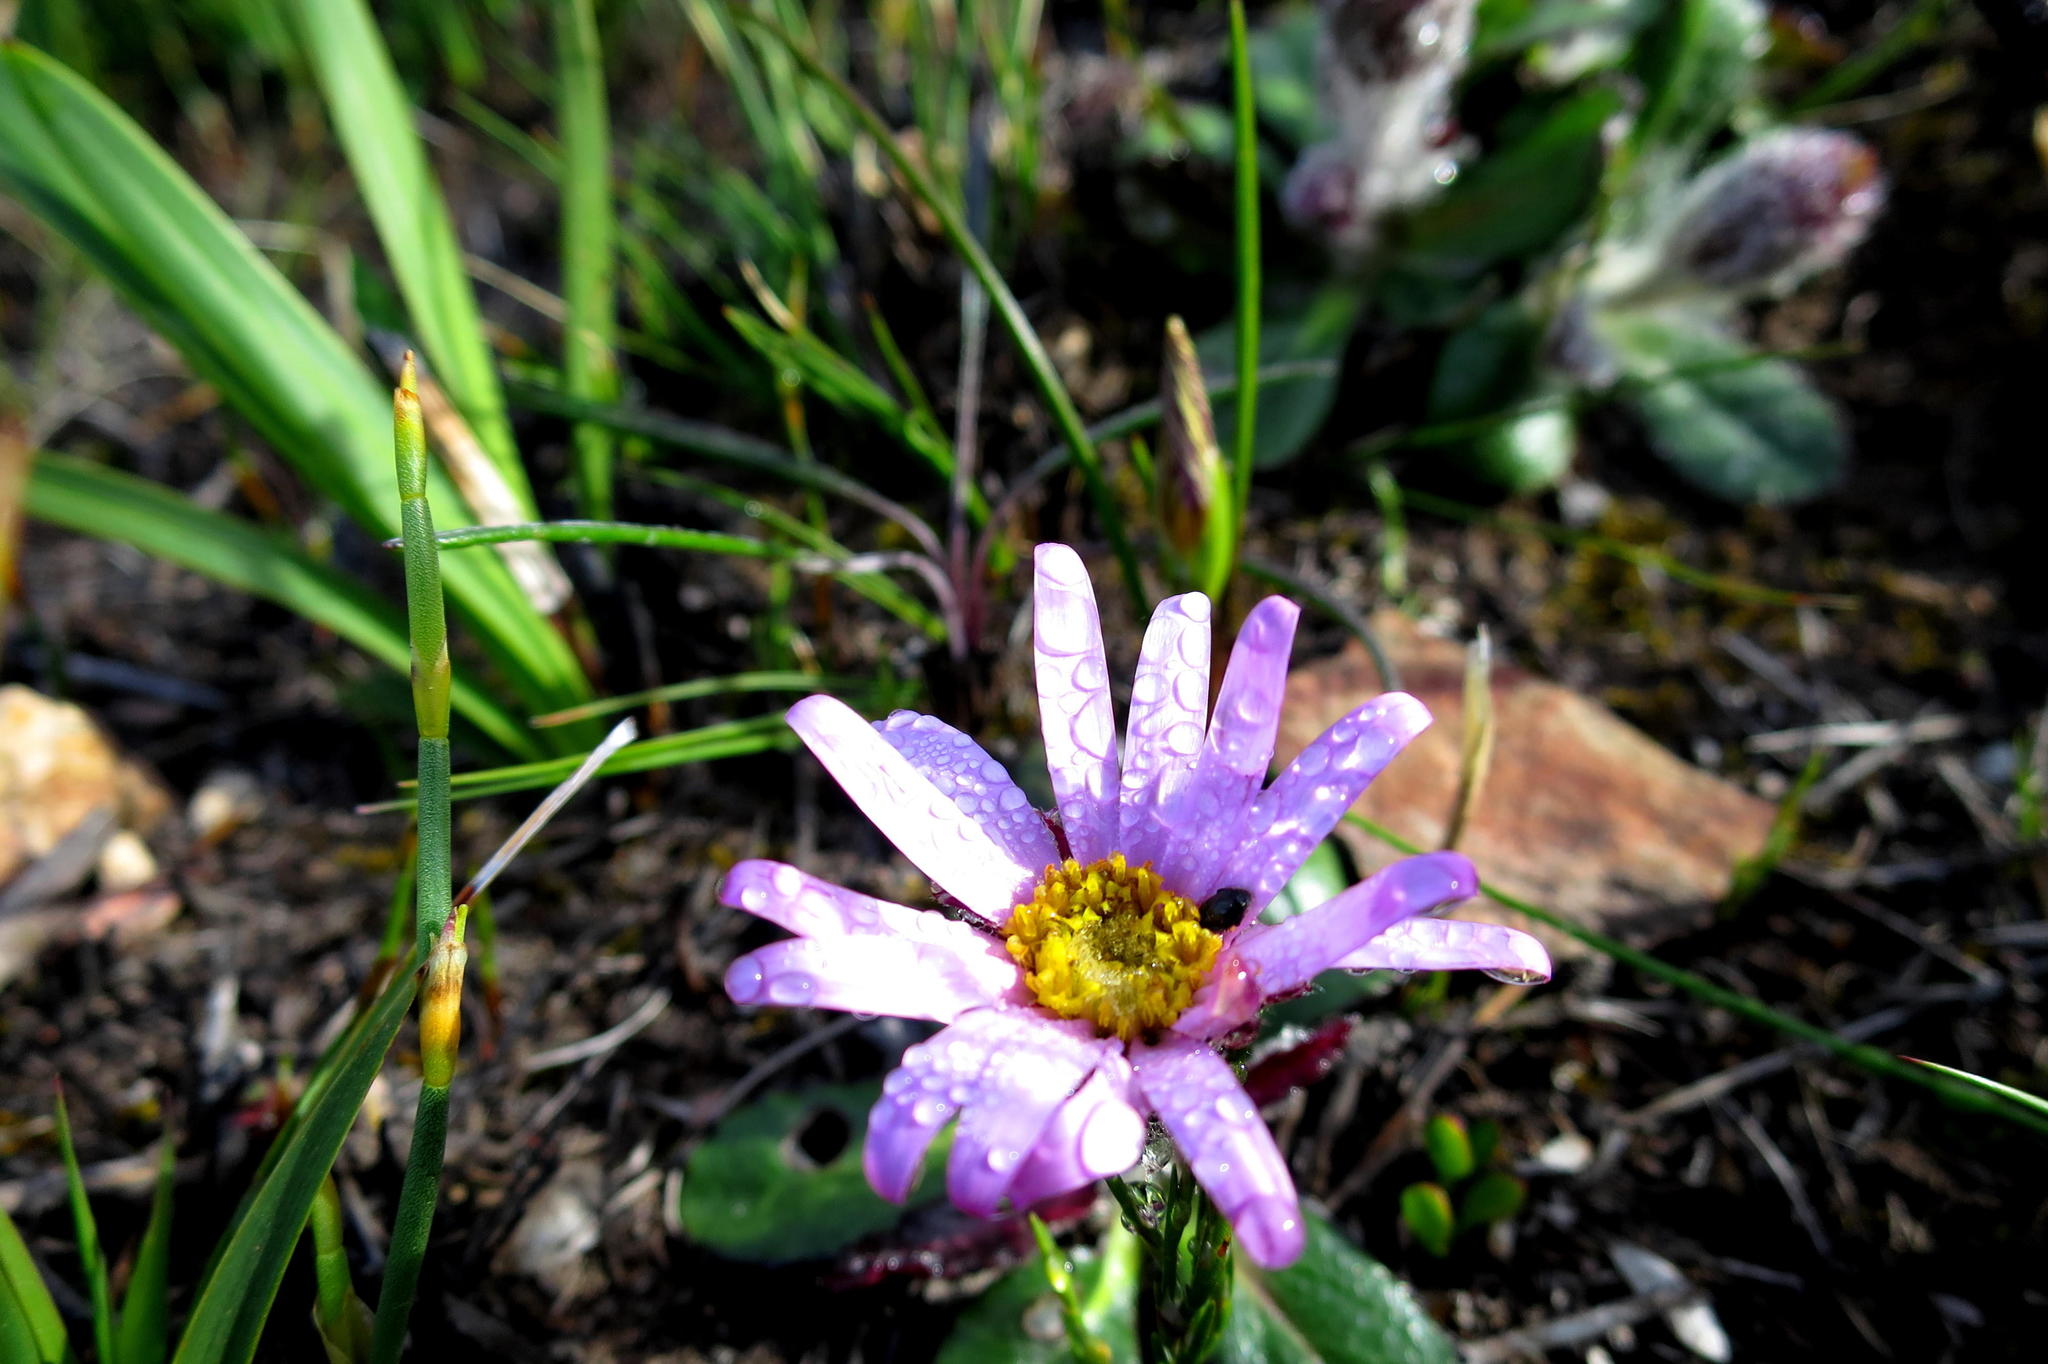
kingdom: Plantae
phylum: Tracheophyta
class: Magnoliopsida
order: Asterales
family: Asteraceae
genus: Zyrphelis
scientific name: Zyrphelis crenata
